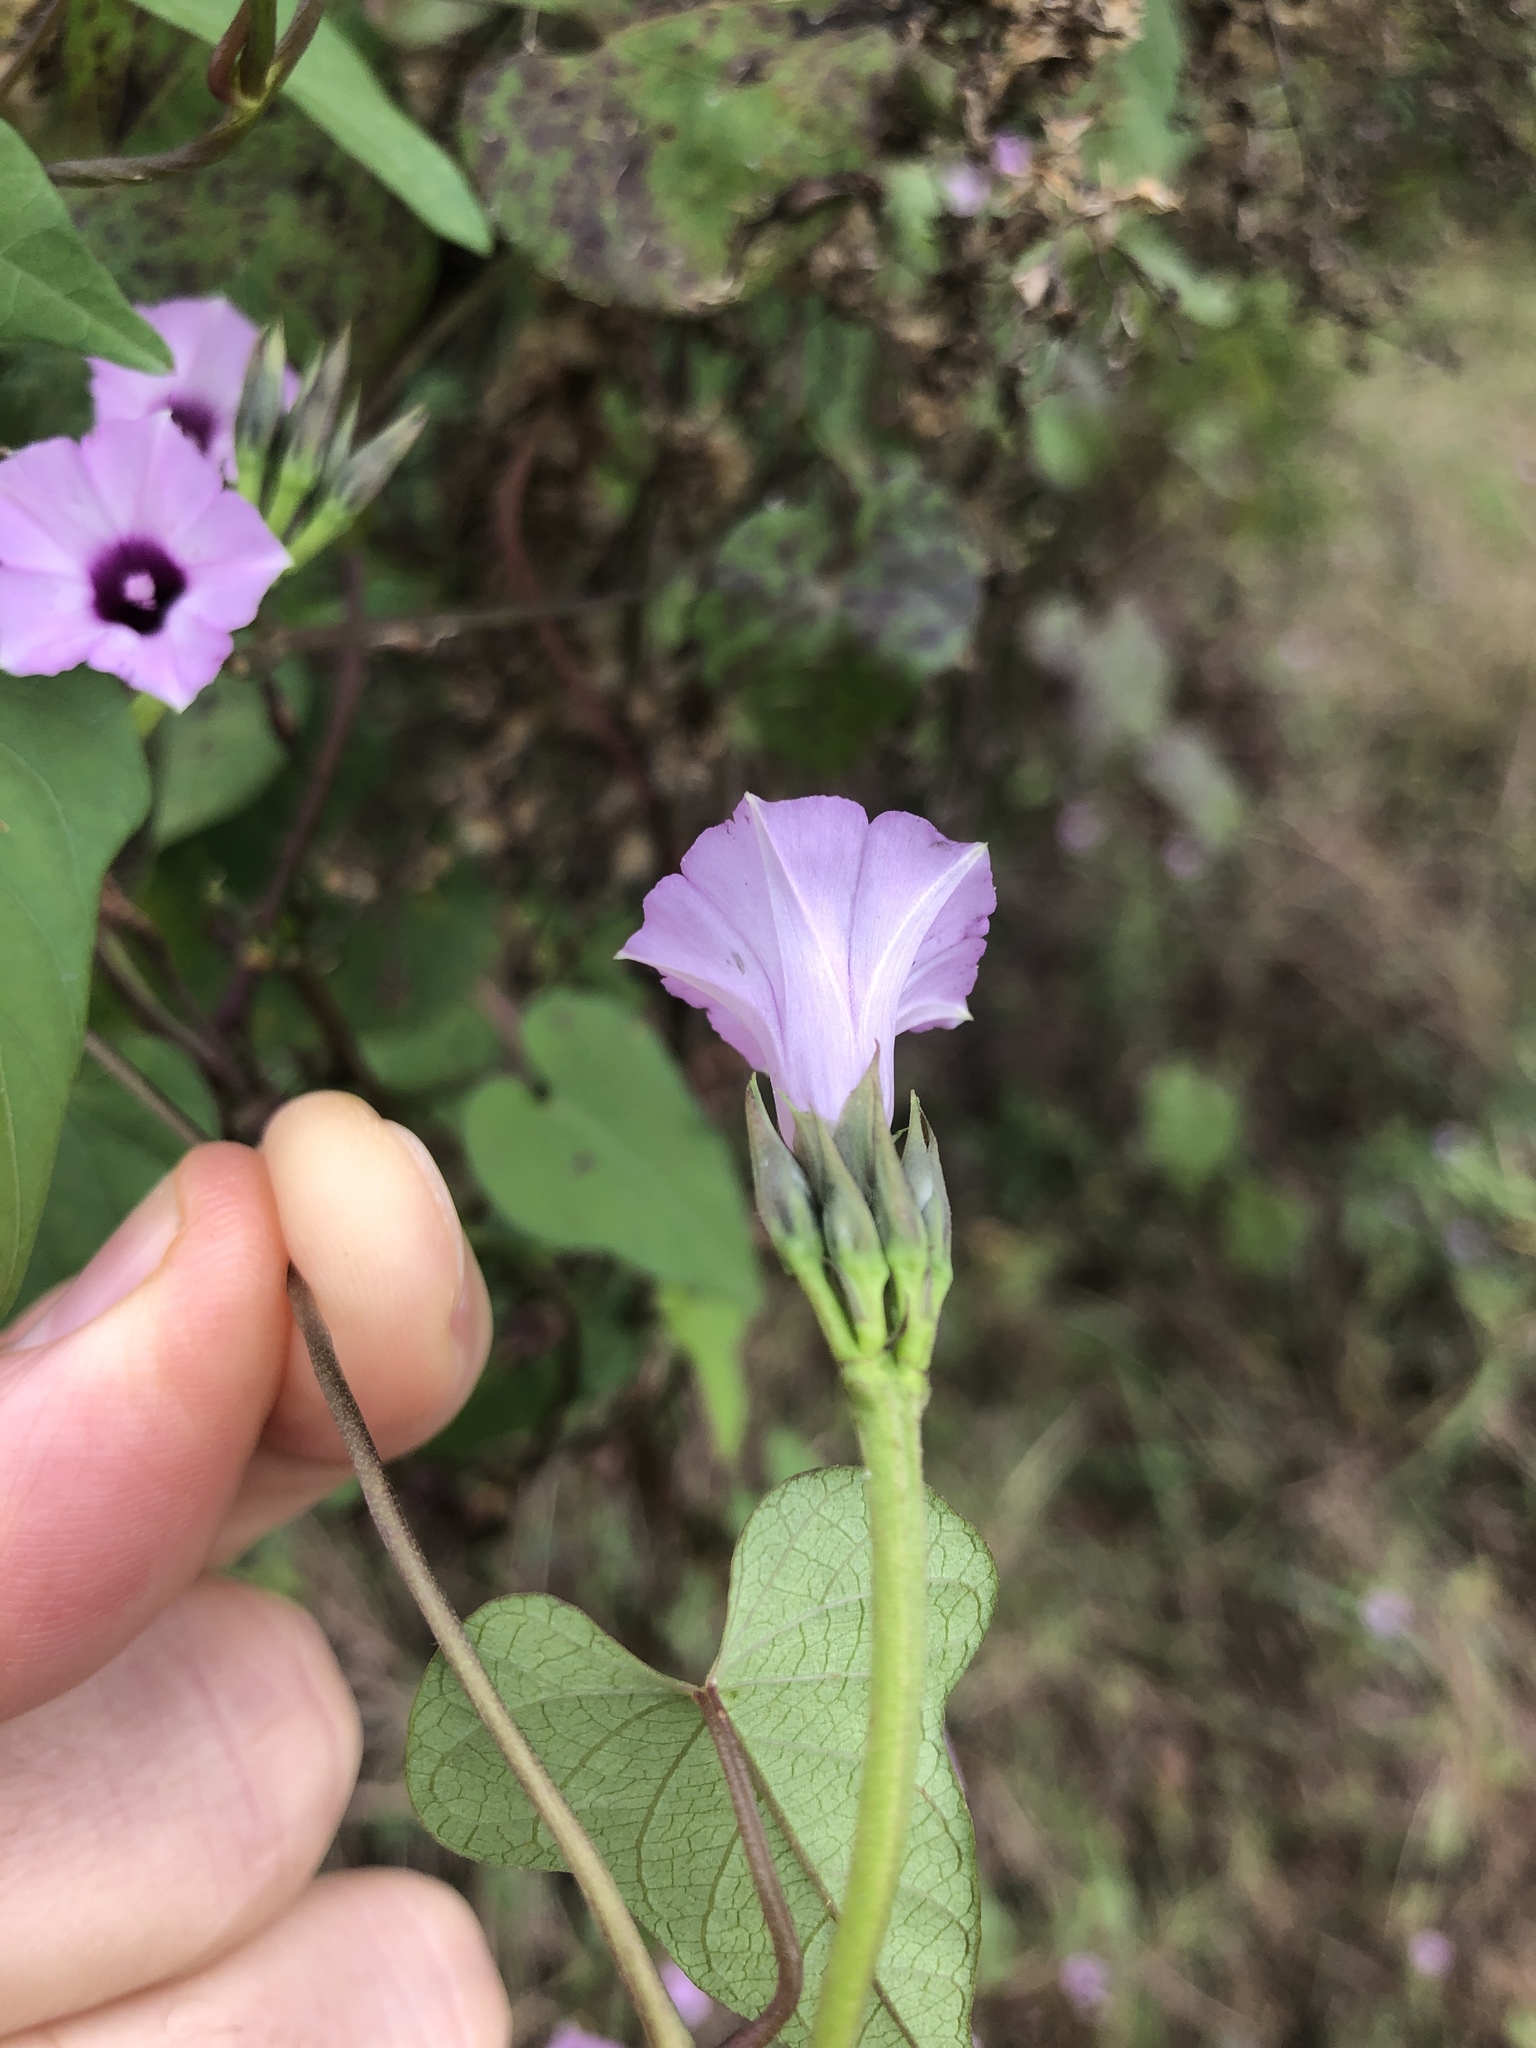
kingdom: Plantae
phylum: Tracheophyta
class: Magnoliopsida
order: Solanales
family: Convolvulaceae
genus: Ipomoea
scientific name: Ipomoea cordatotriloba
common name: Cotton morning glory
